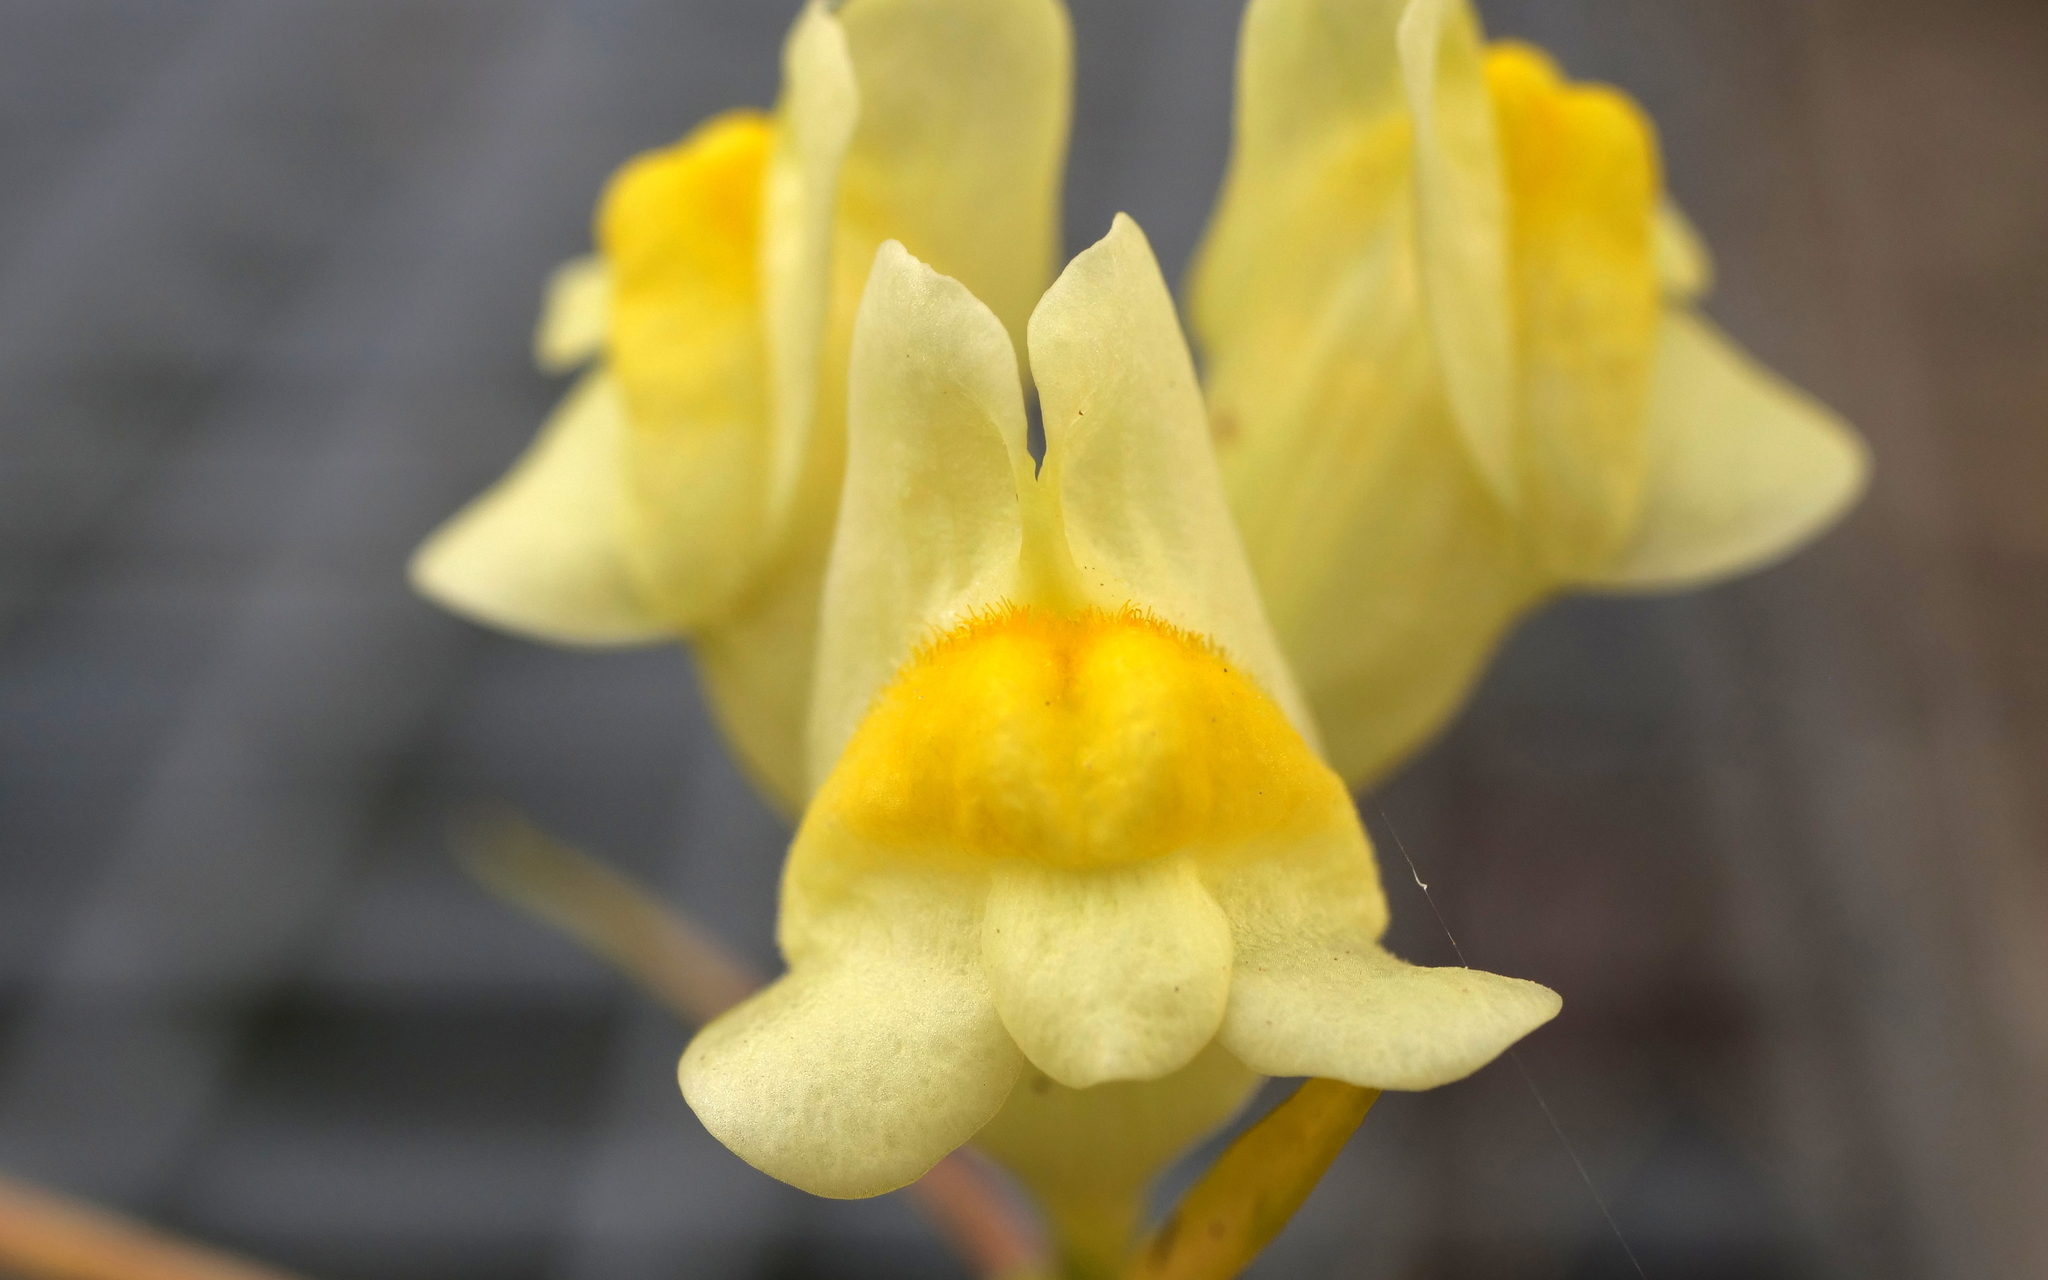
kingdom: Plantae
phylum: Tracheophyta
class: Magnoliopsida
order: Lamiales
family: Plantaginaceae
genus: Linaria
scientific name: Linaria vulgaris
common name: Butter and eggs
